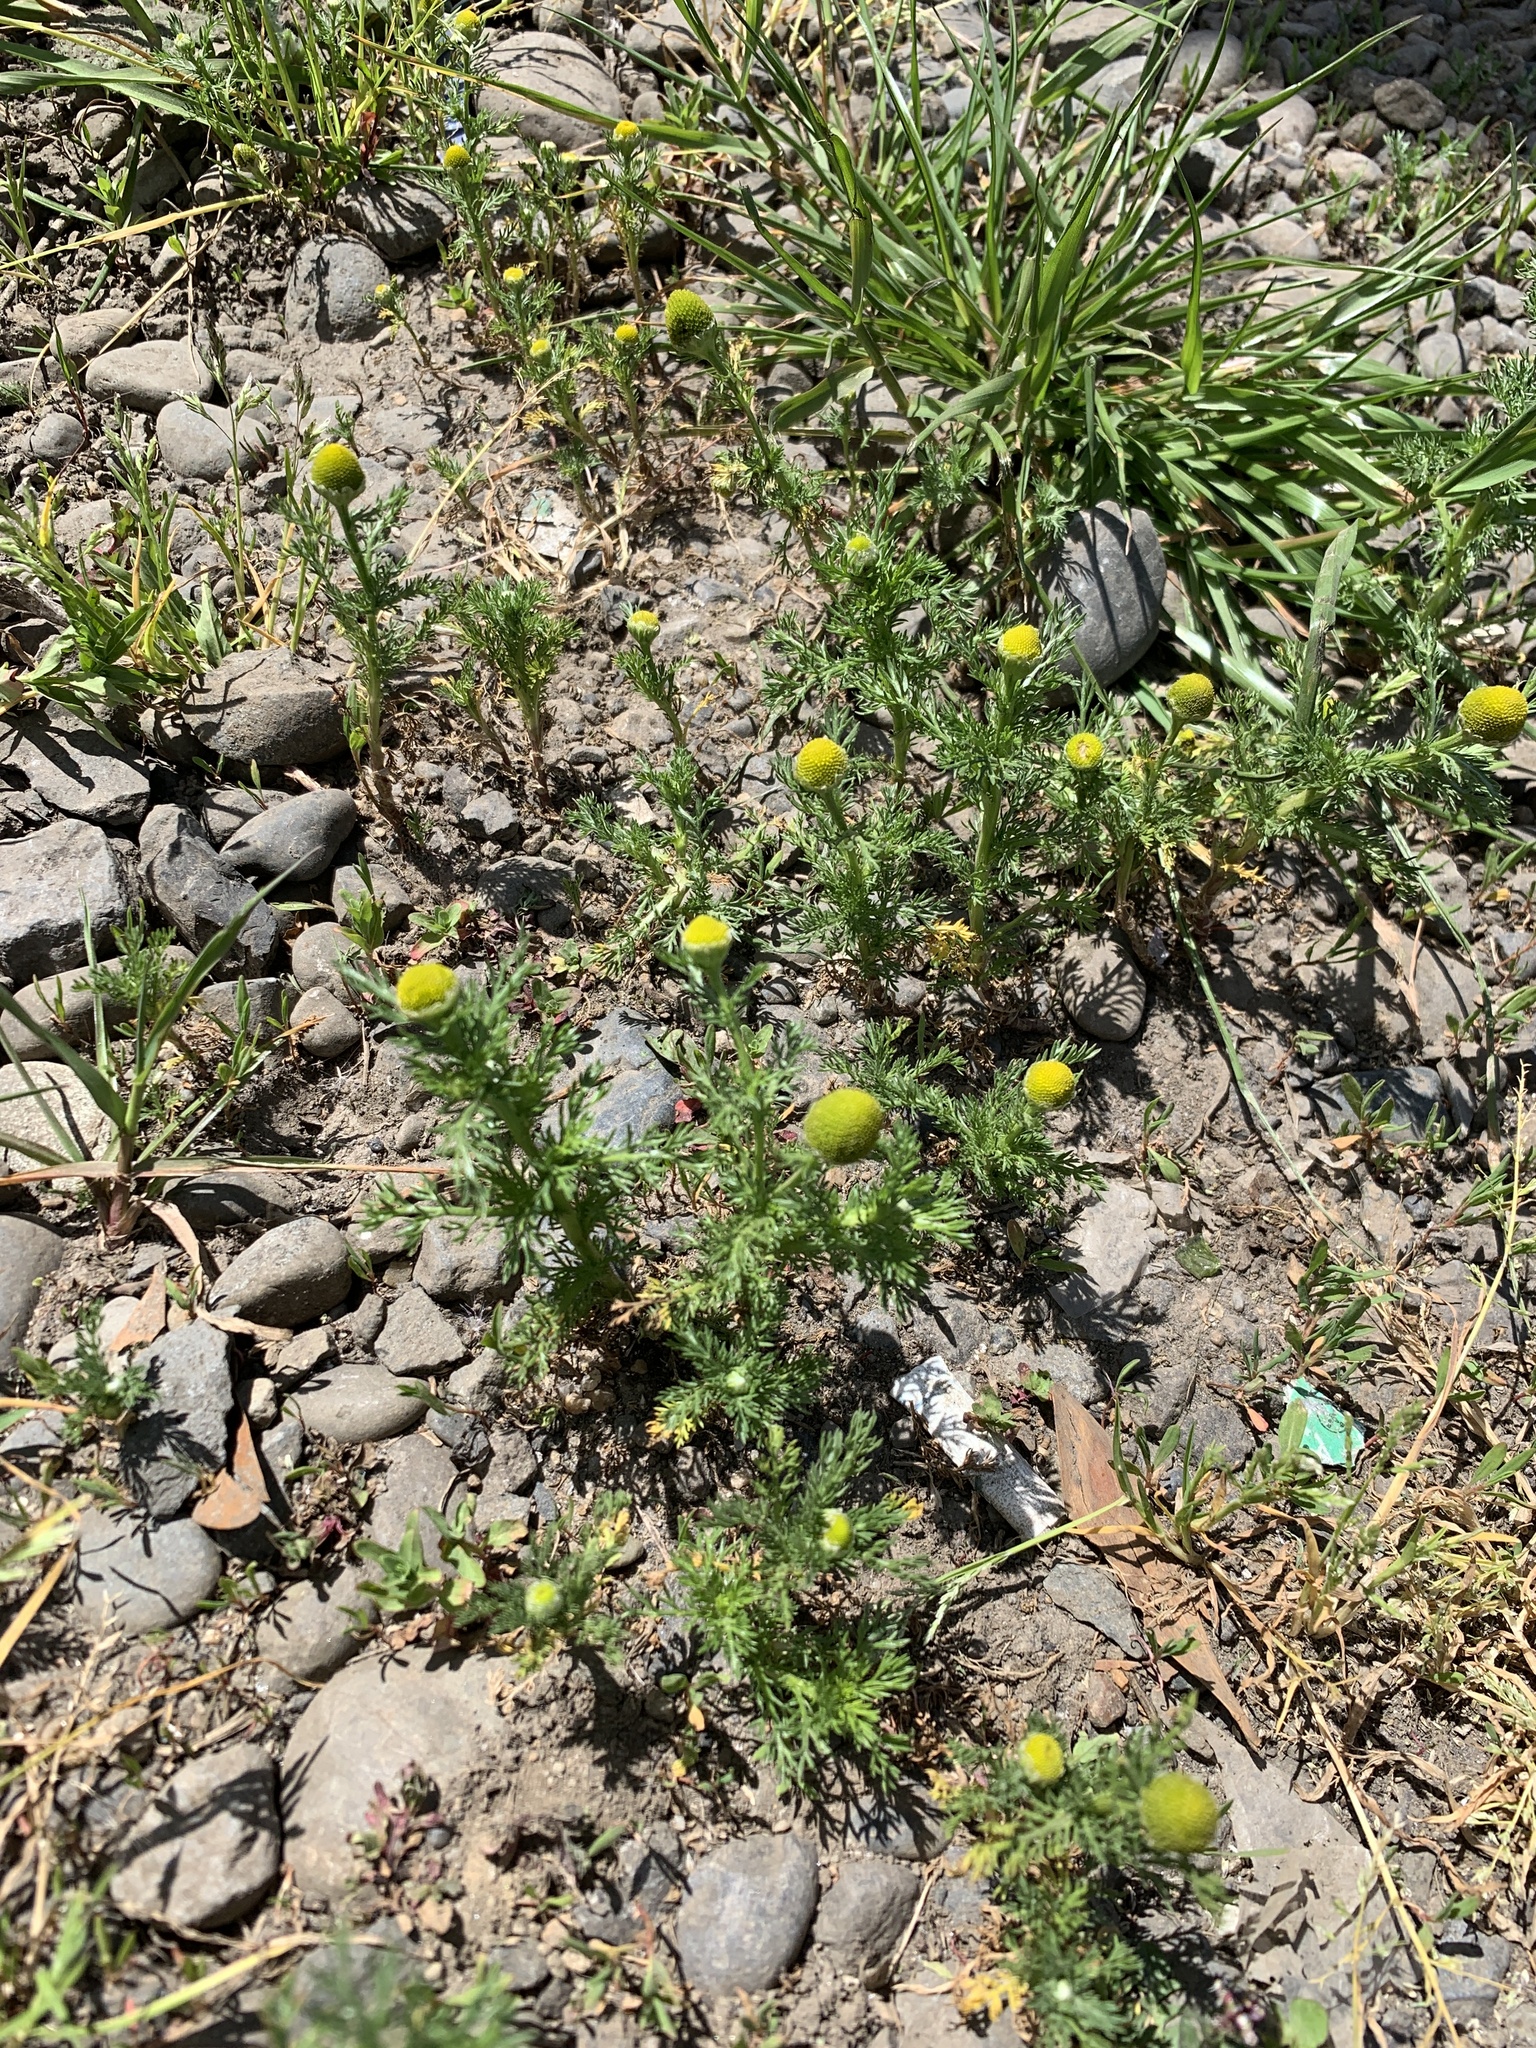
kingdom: Plantae
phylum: Tracheophyta
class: Magnoliopsida
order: Asterales
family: Asteraceae
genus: Matricaria
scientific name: Matricaria discoidea
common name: Disc mayweed
